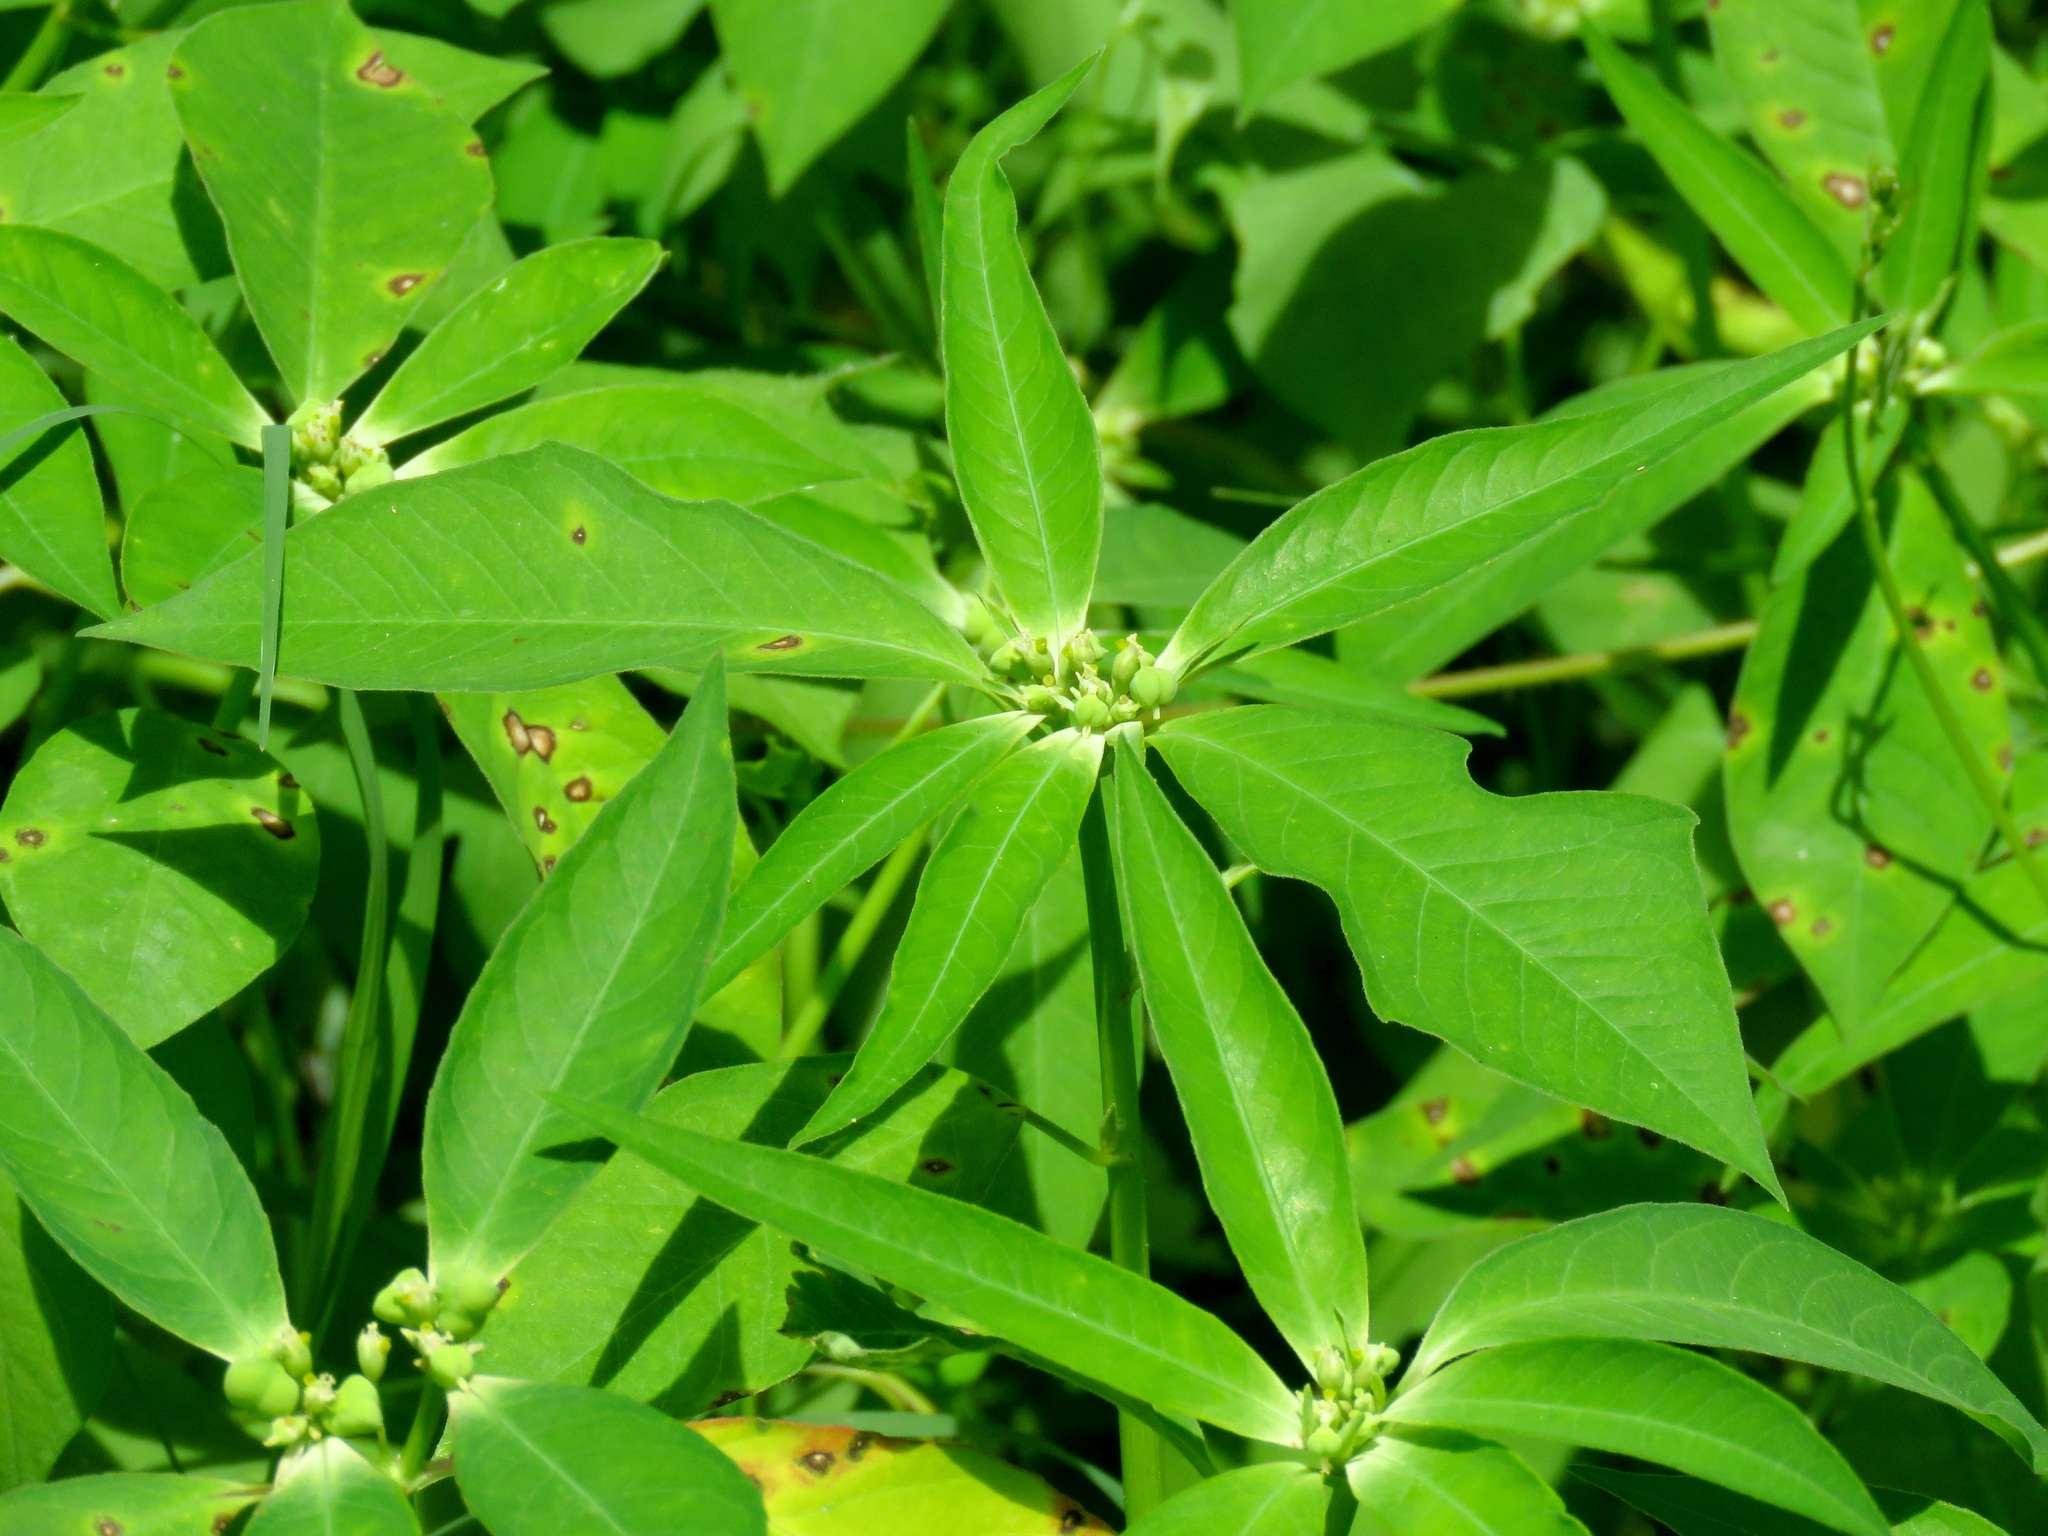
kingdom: Plantae
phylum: Tracheophyta
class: Magnoliopsida
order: Malpighiales
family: Euphorbiaceae
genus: Euphorbia
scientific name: Euphorbia heterophylla
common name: Mexican fireplant
